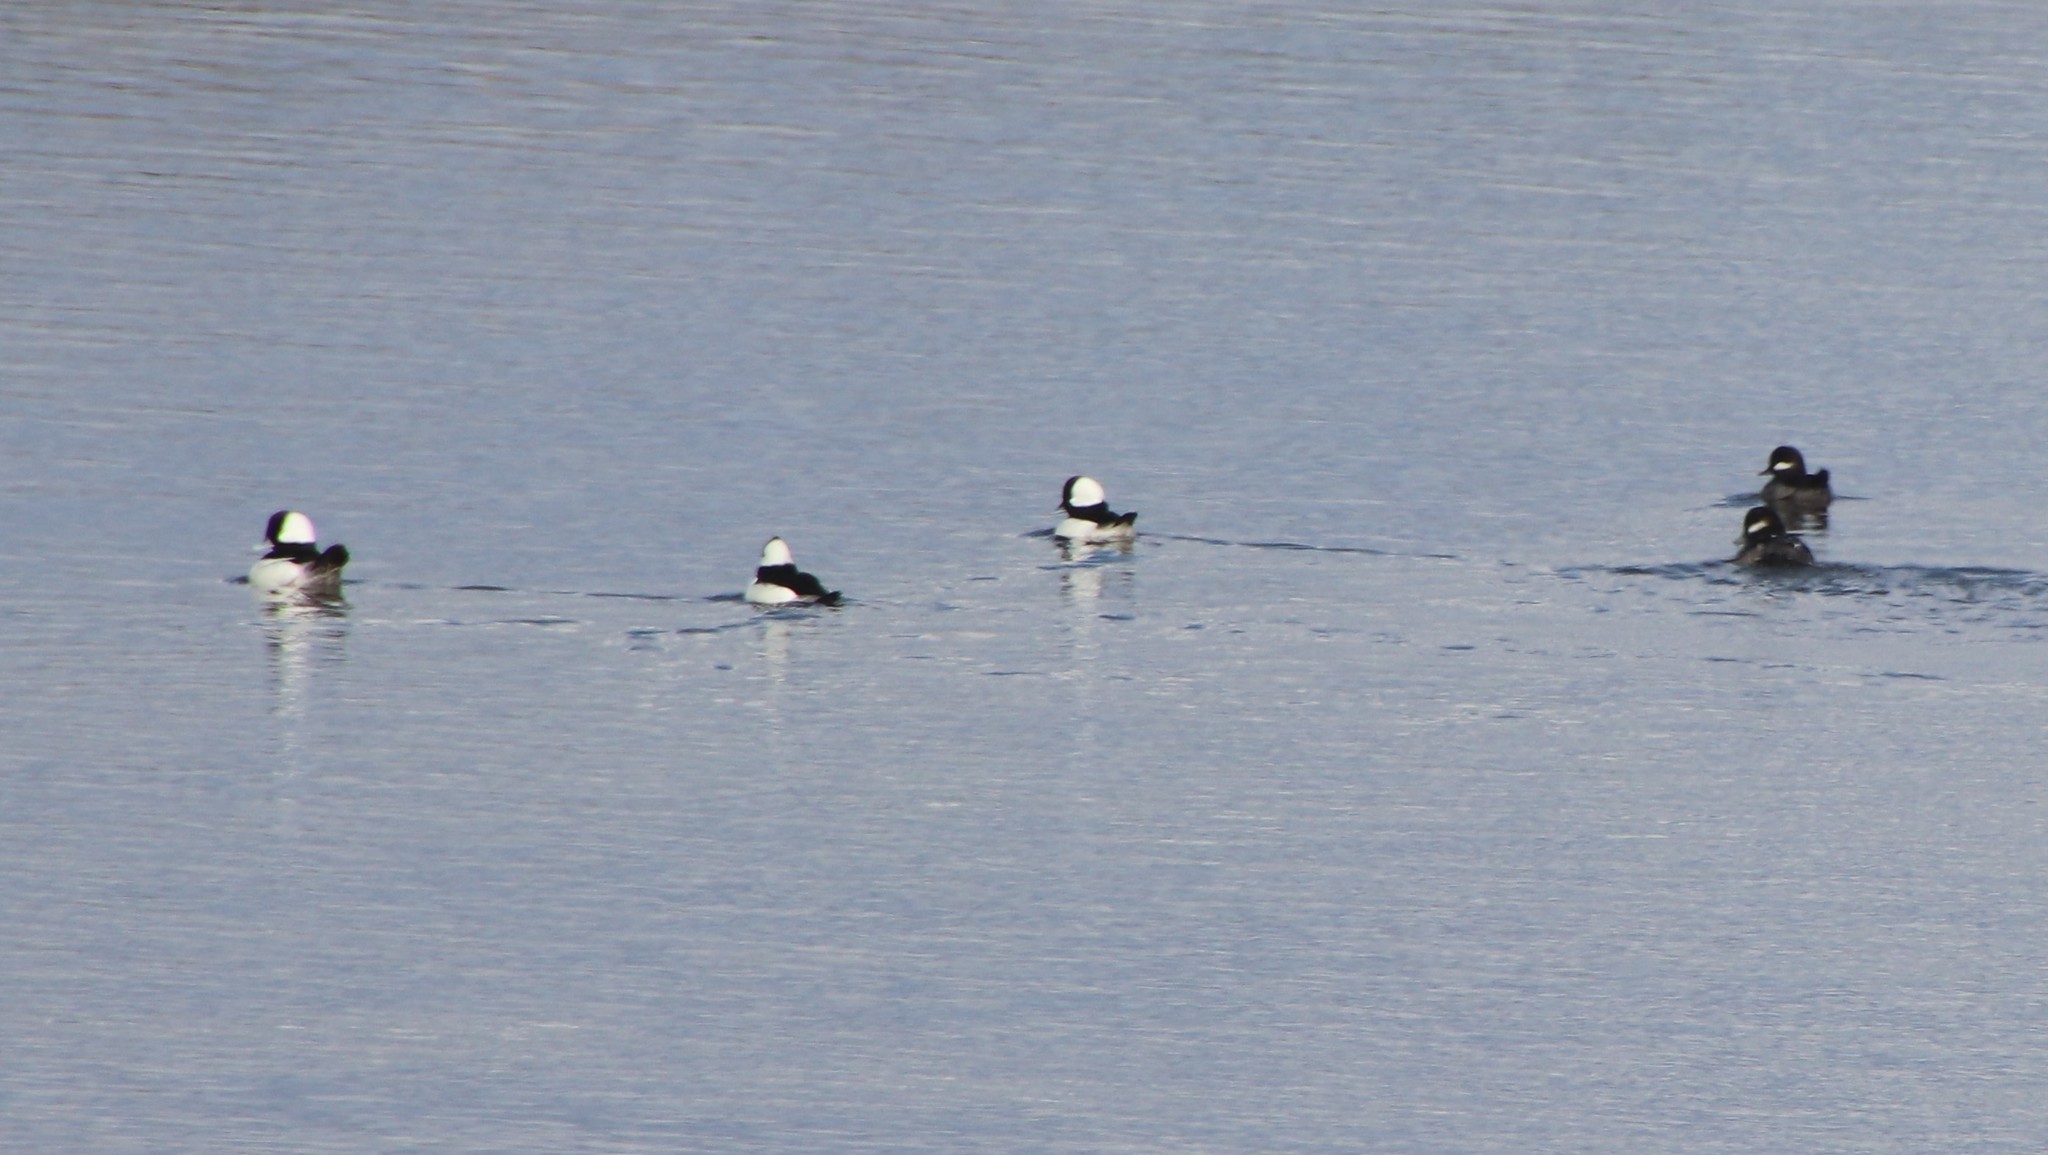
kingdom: Animalia
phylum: Chordata
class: Aves
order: Anseriformes
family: Anatidae
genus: Bucephala
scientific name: Bucephala albeola
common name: Bufflehead
